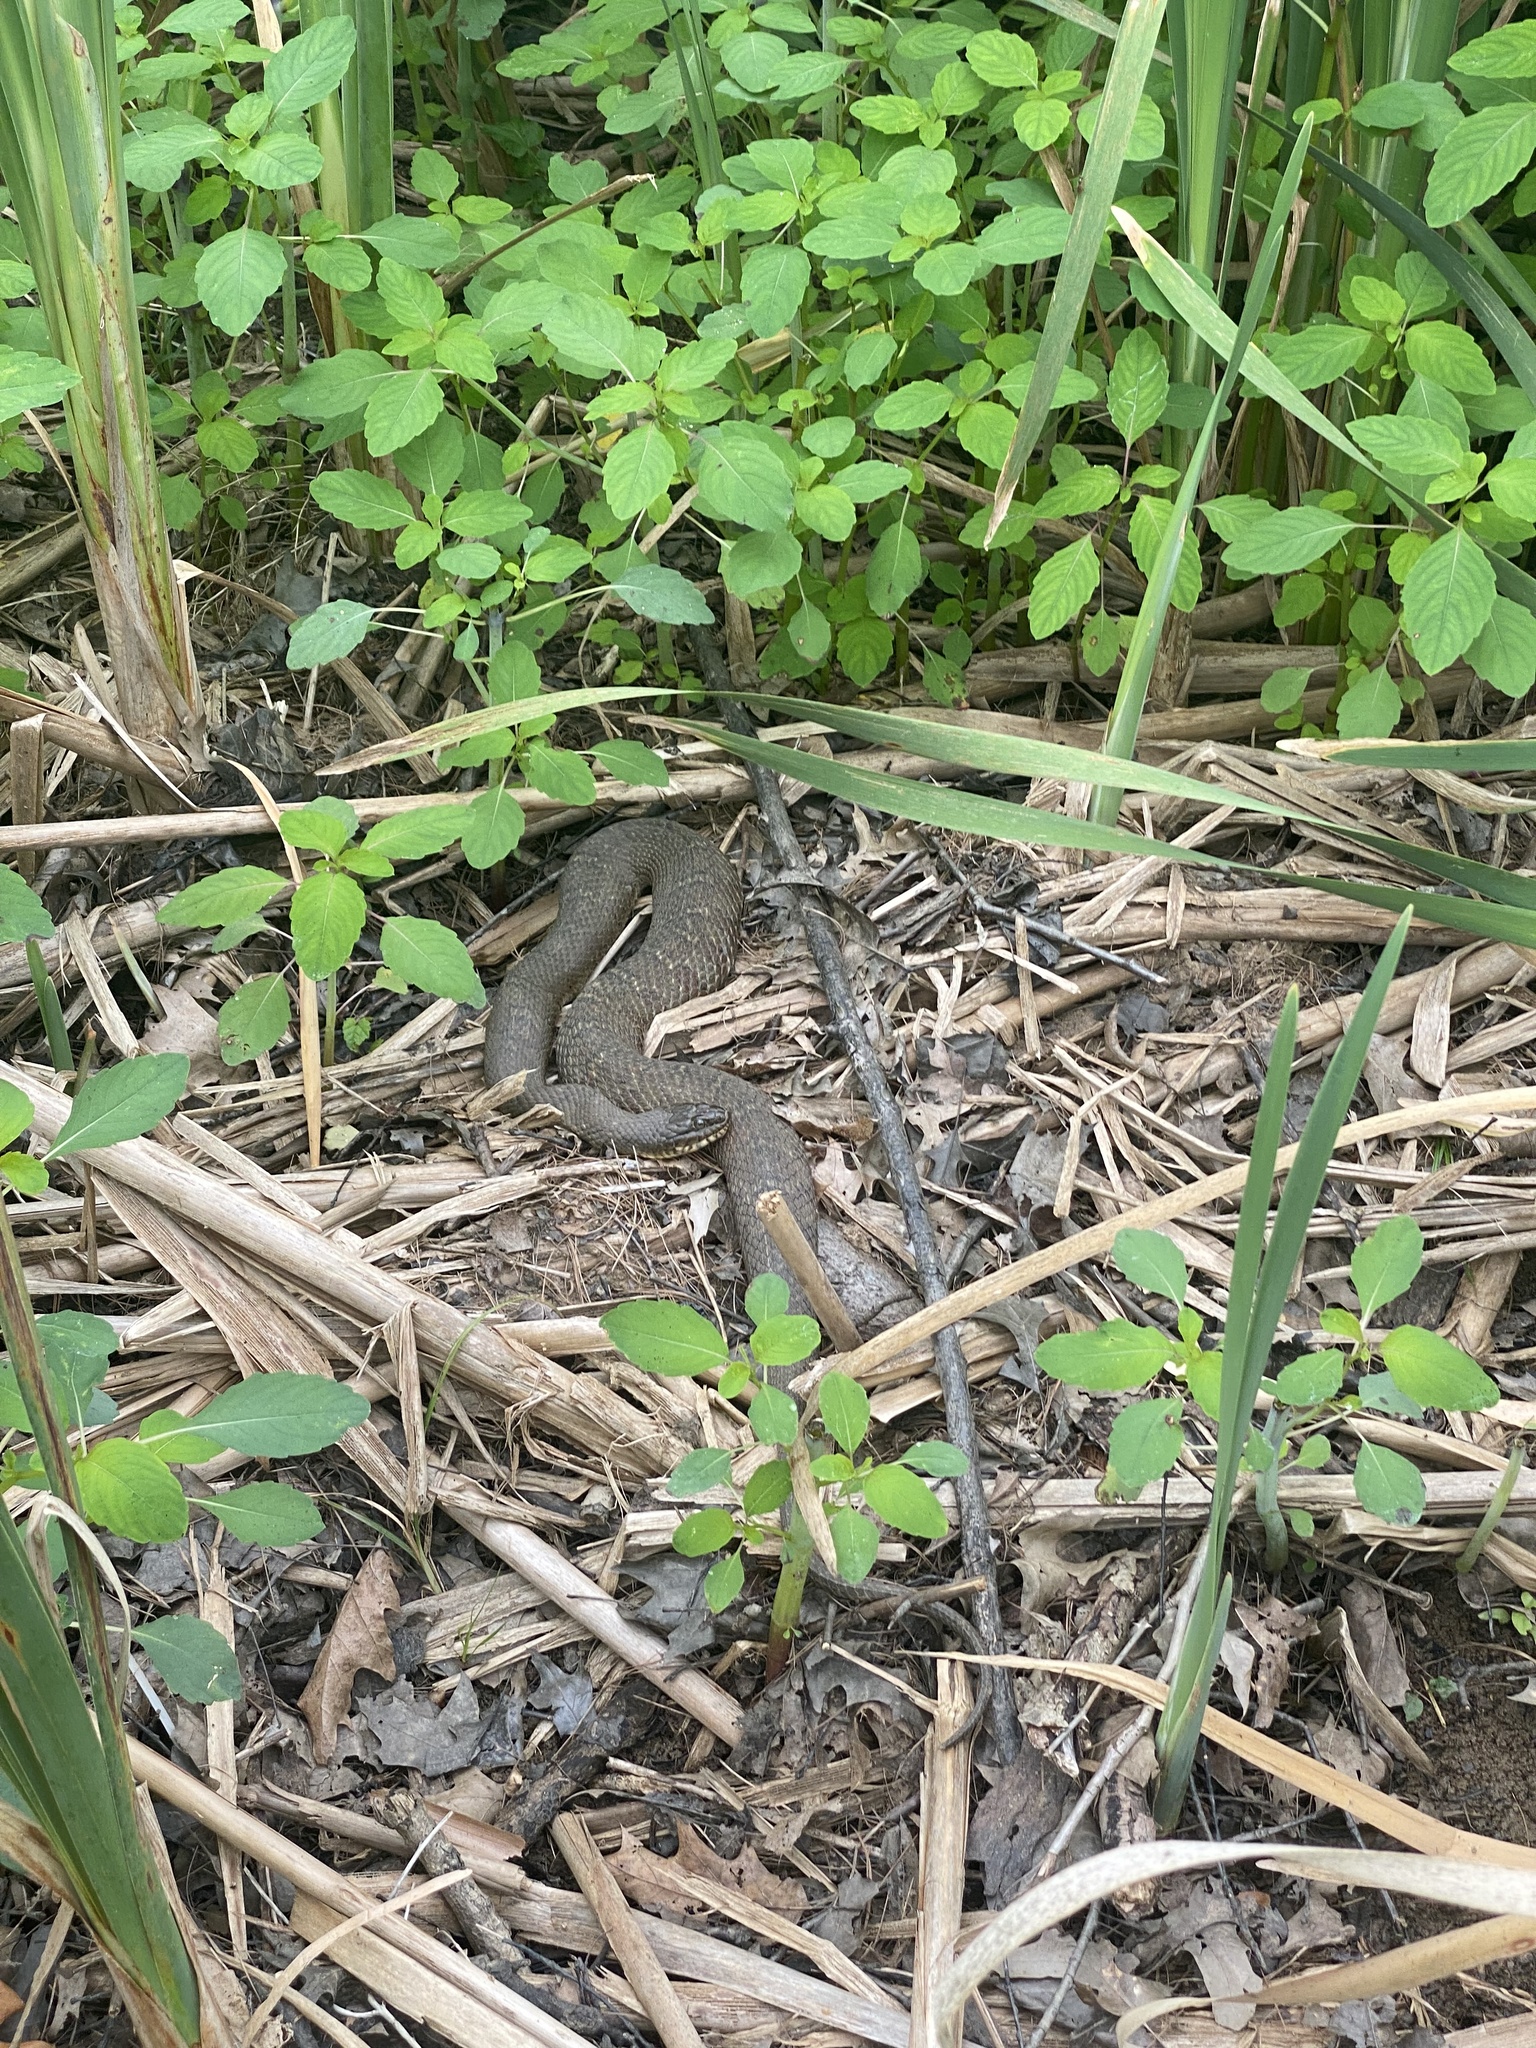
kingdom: Animalia
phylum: Chordata
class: Squamata
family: Colubridae
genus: Nerodia
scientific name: Nerodia sipedon
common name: Northern water snake
